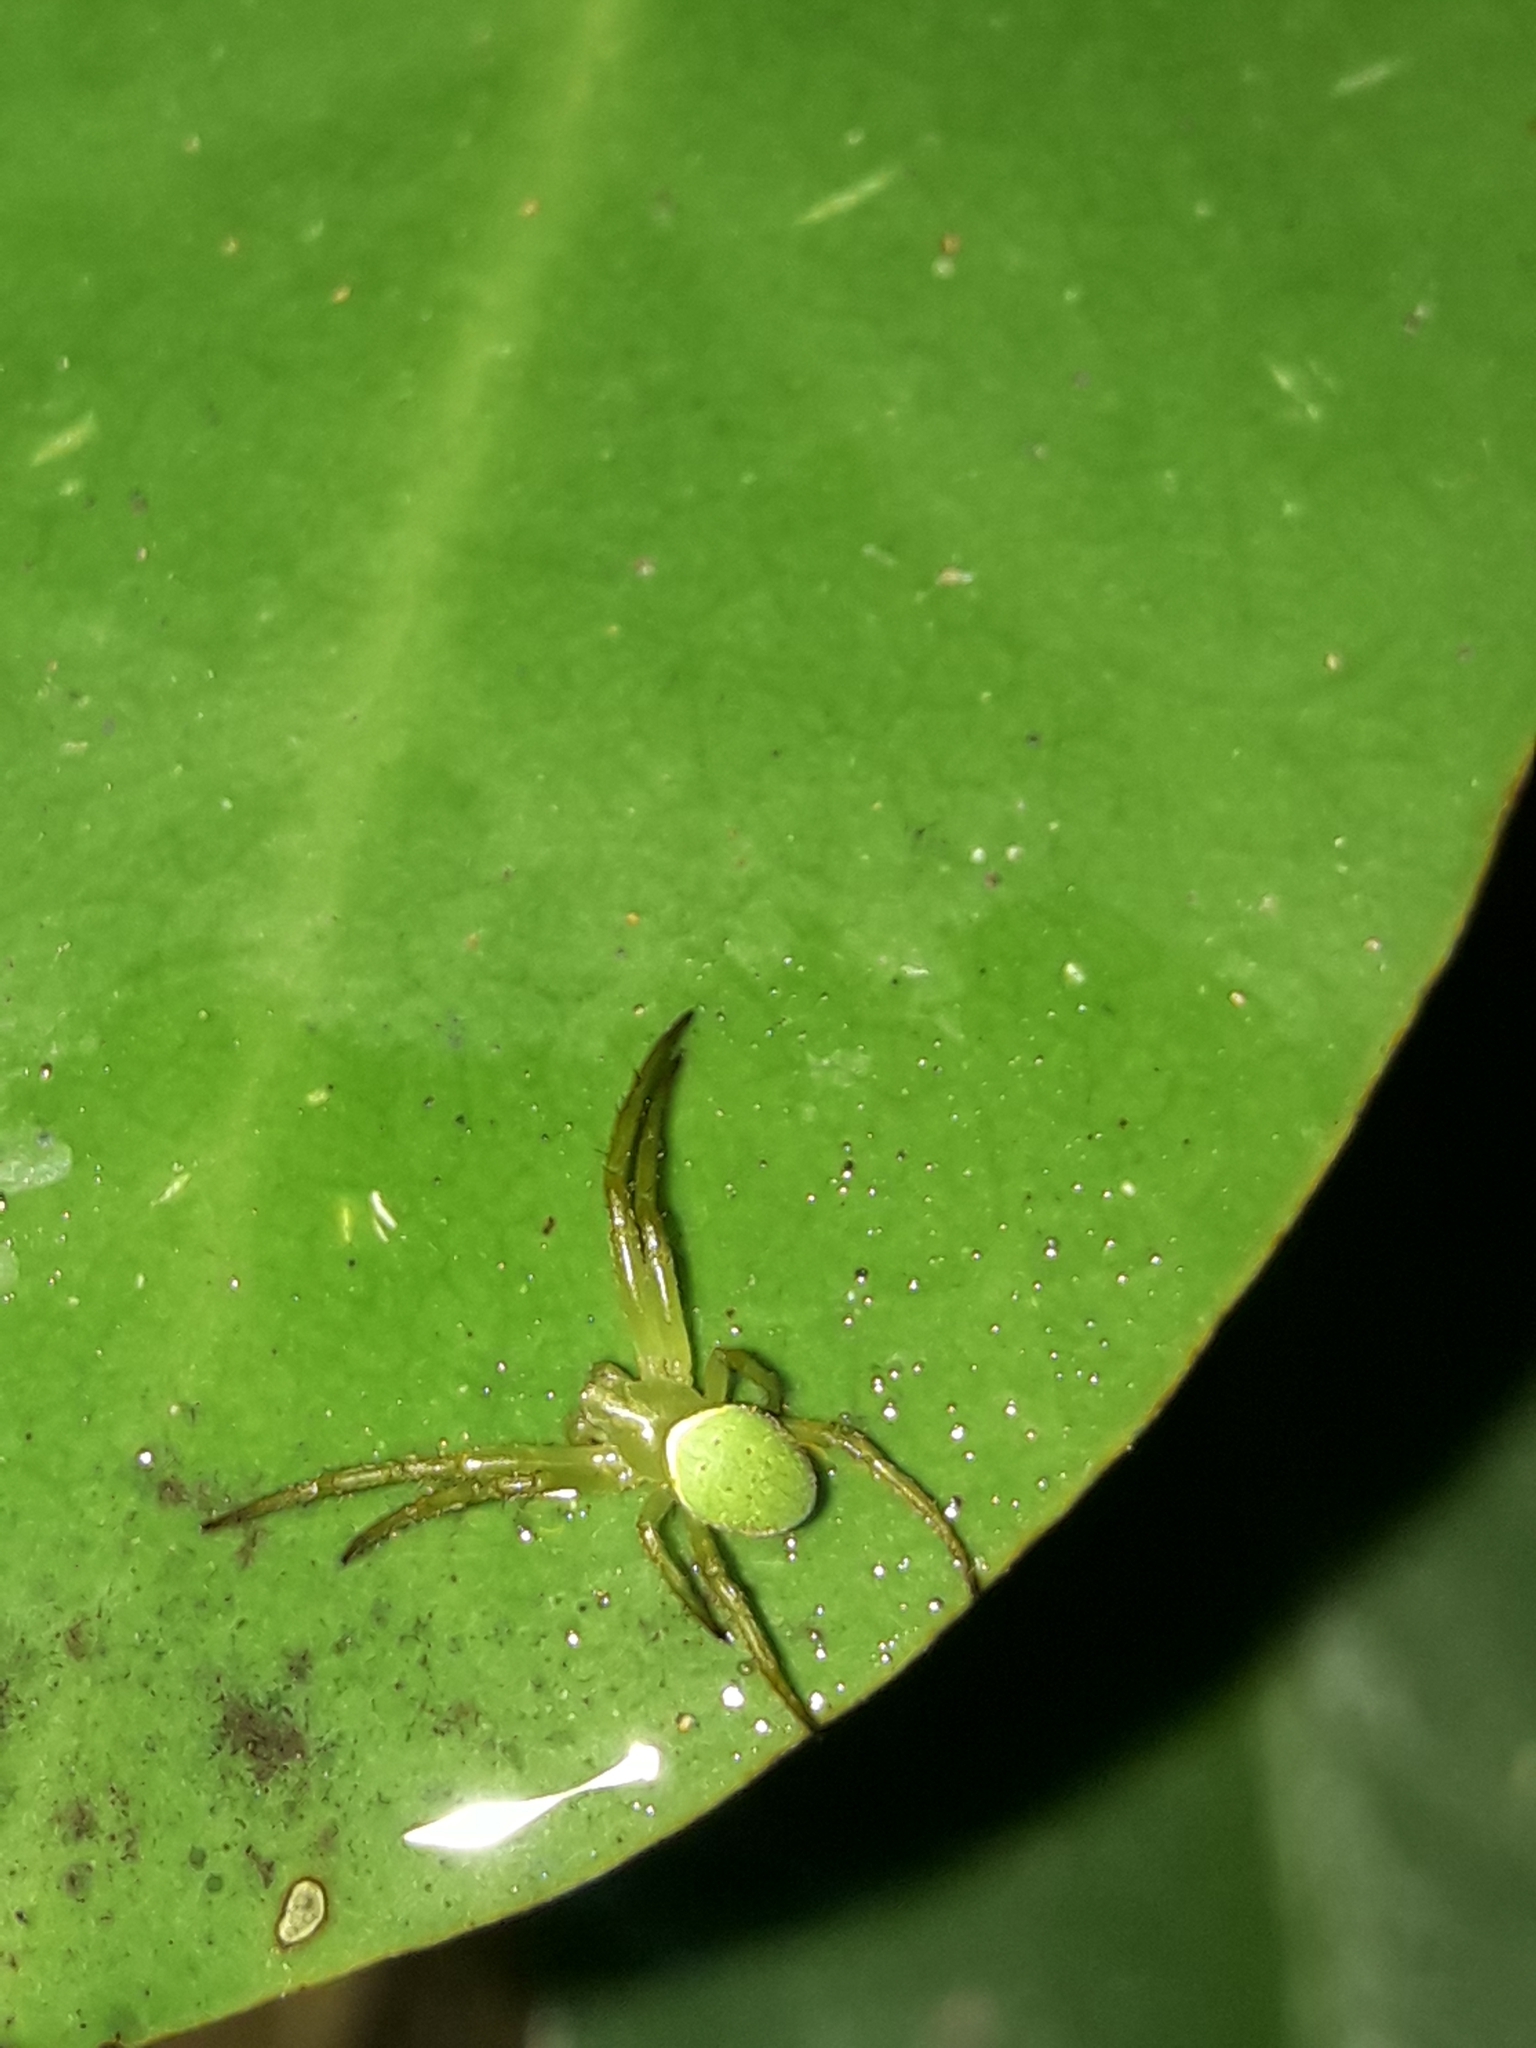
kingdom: Animalia
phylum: Arthropoda
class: Arachnida
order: Araneae
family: Araneidae
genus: Colaranea
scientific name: Colaranea viriditas
